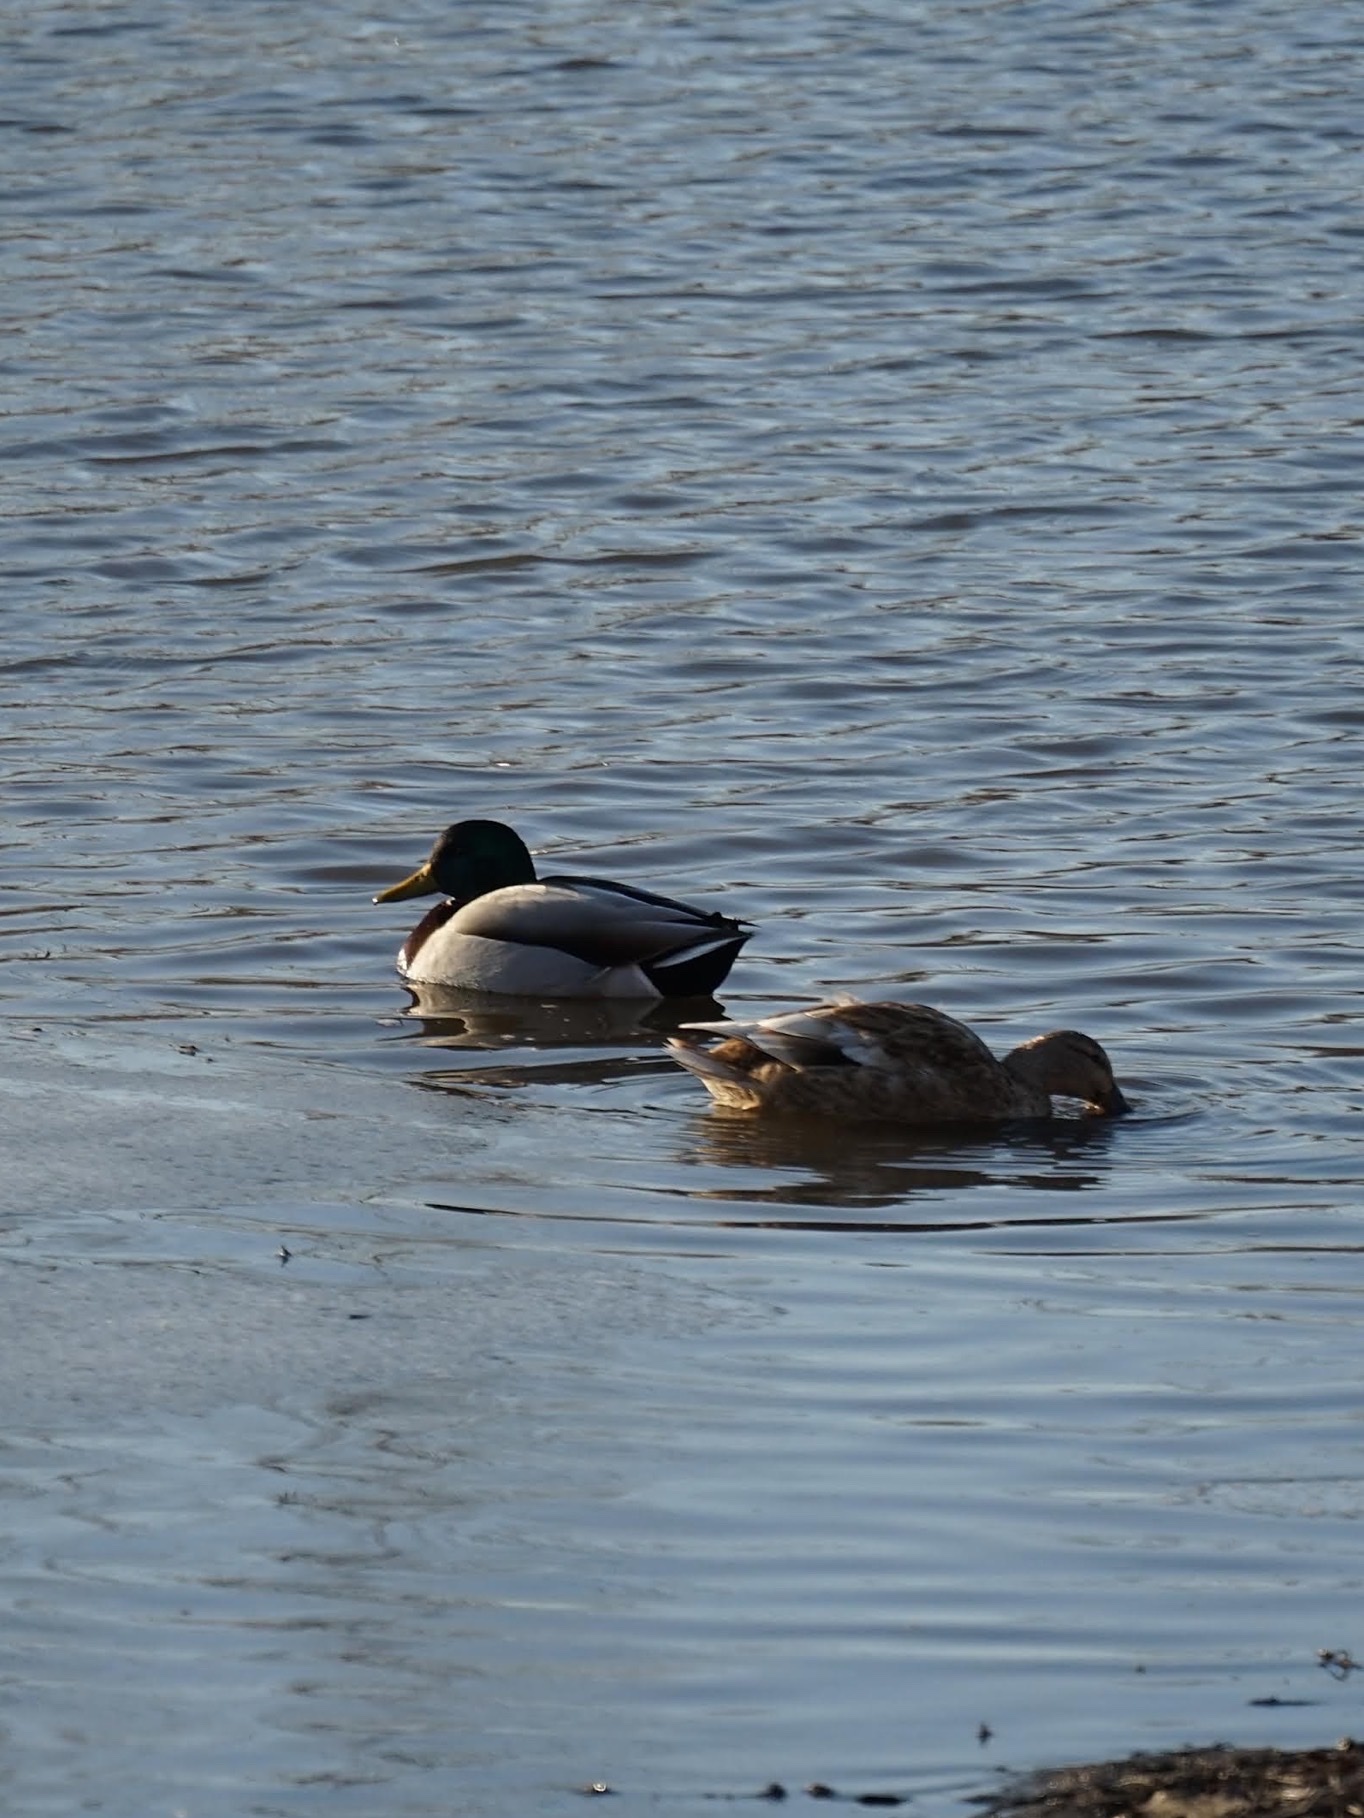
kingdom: Animalia
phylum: Chordata
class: Aves
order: Anseriformes
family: Anatidae
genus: Anas
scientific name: Anas platyrhynchos
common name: Mallard
